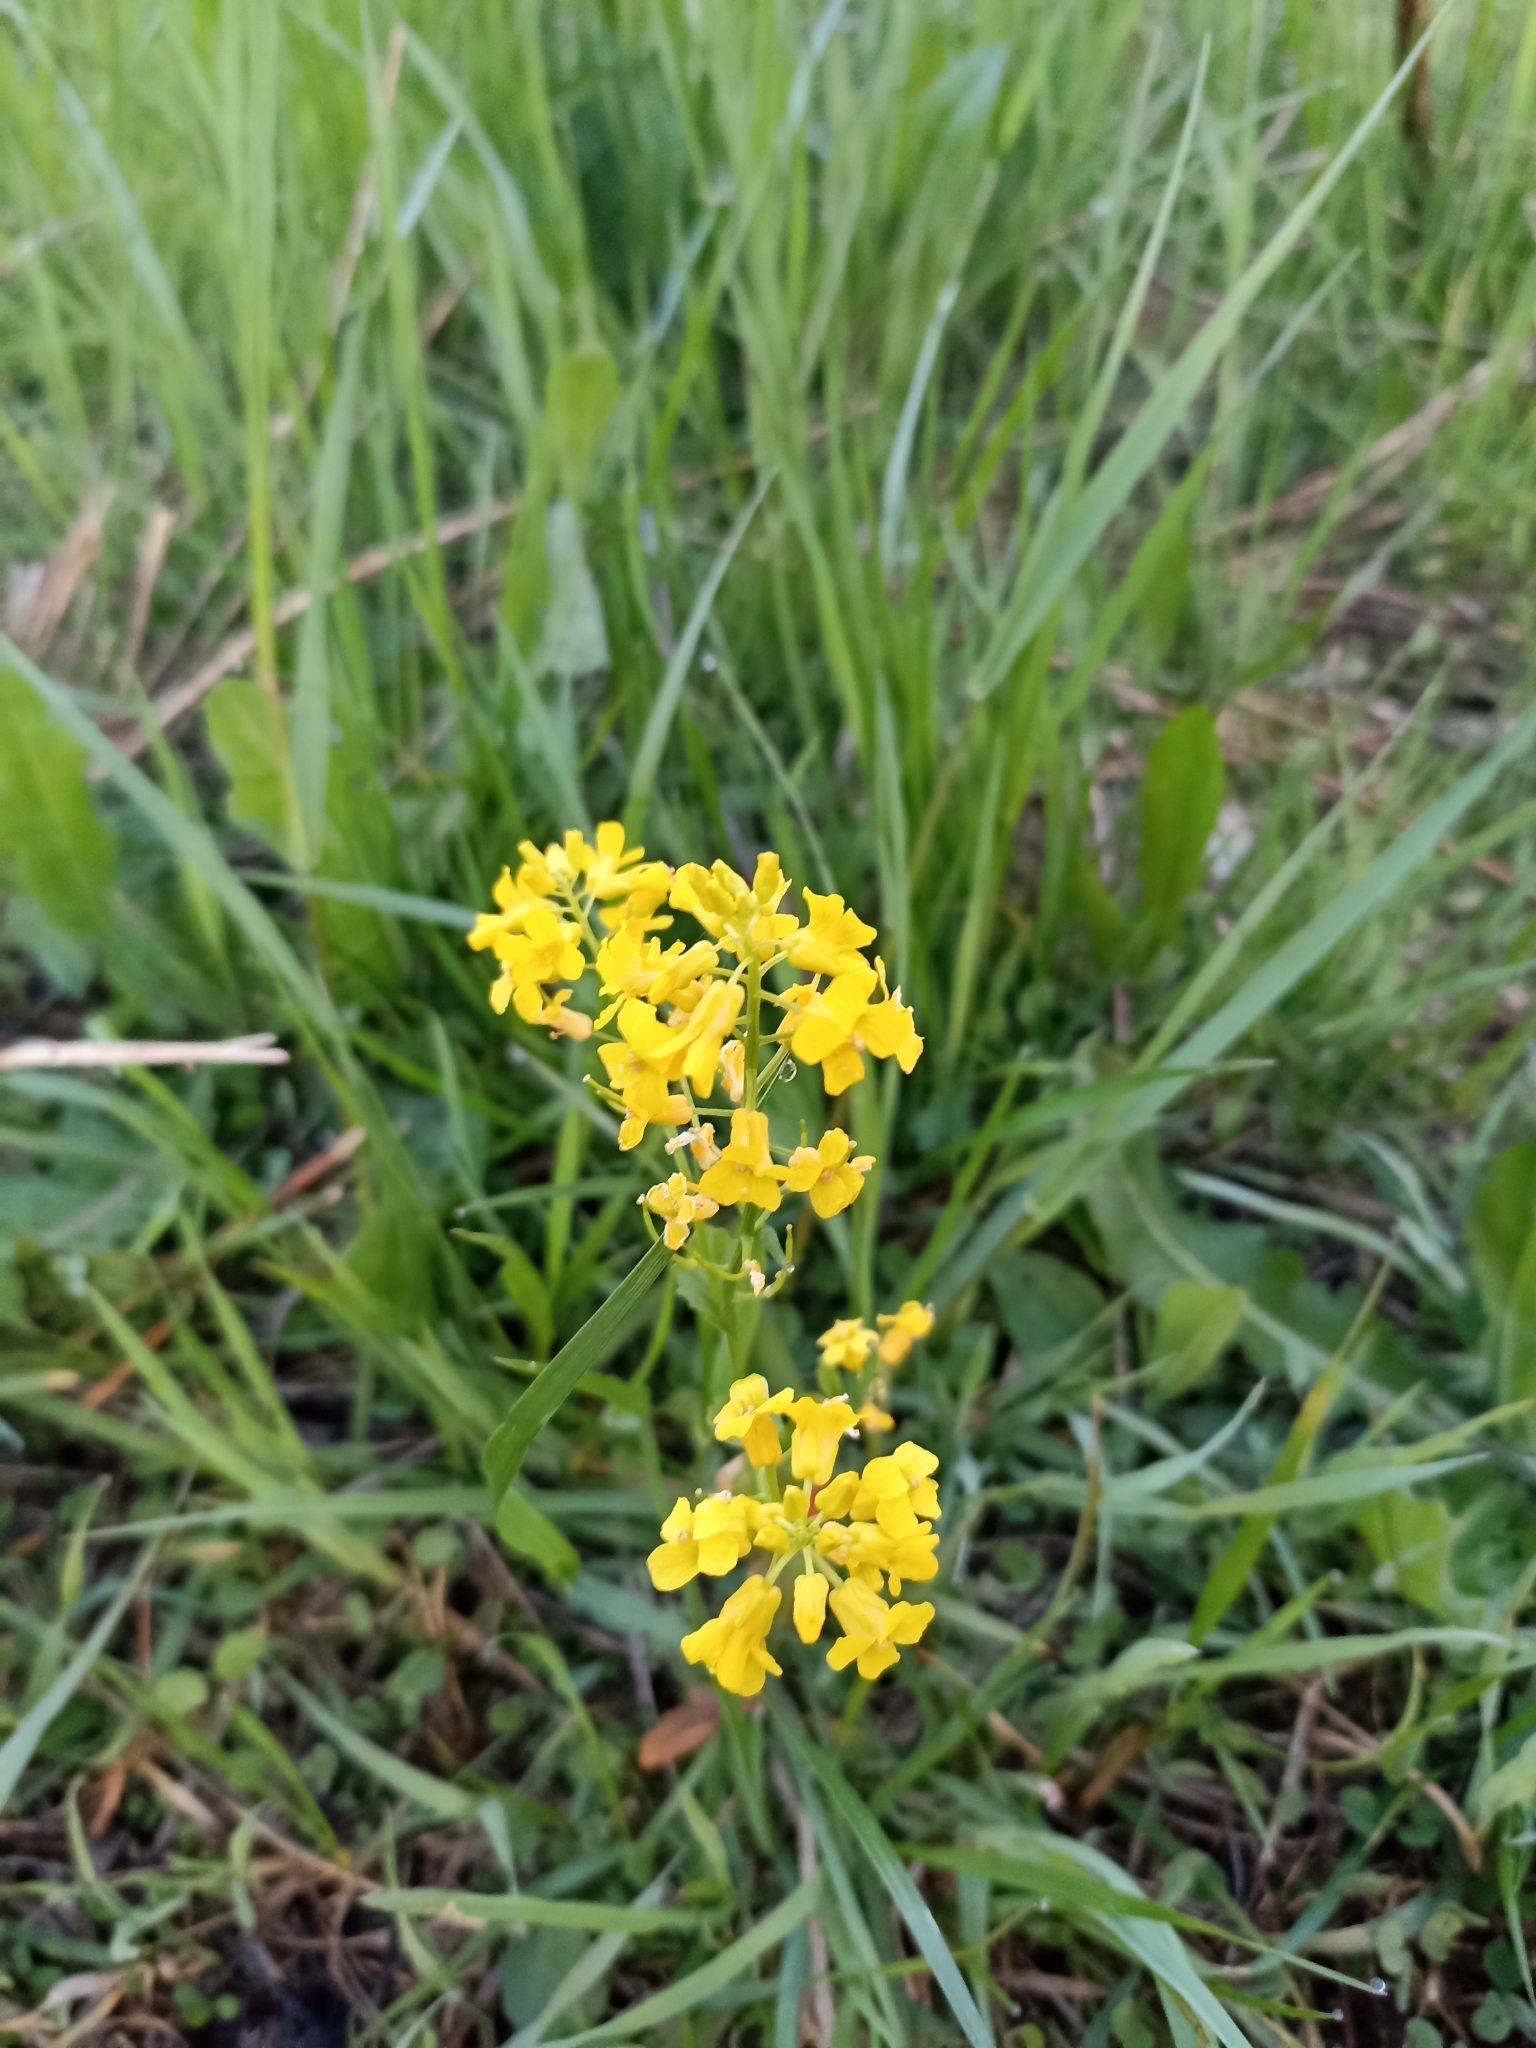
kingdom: Plantae
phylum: Tracheophyta
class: Magnoliopsida
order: Brassicales
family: Brassicaceae
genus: Barbarea
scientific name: Barbarea vulgaris
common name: Cressy-greens
